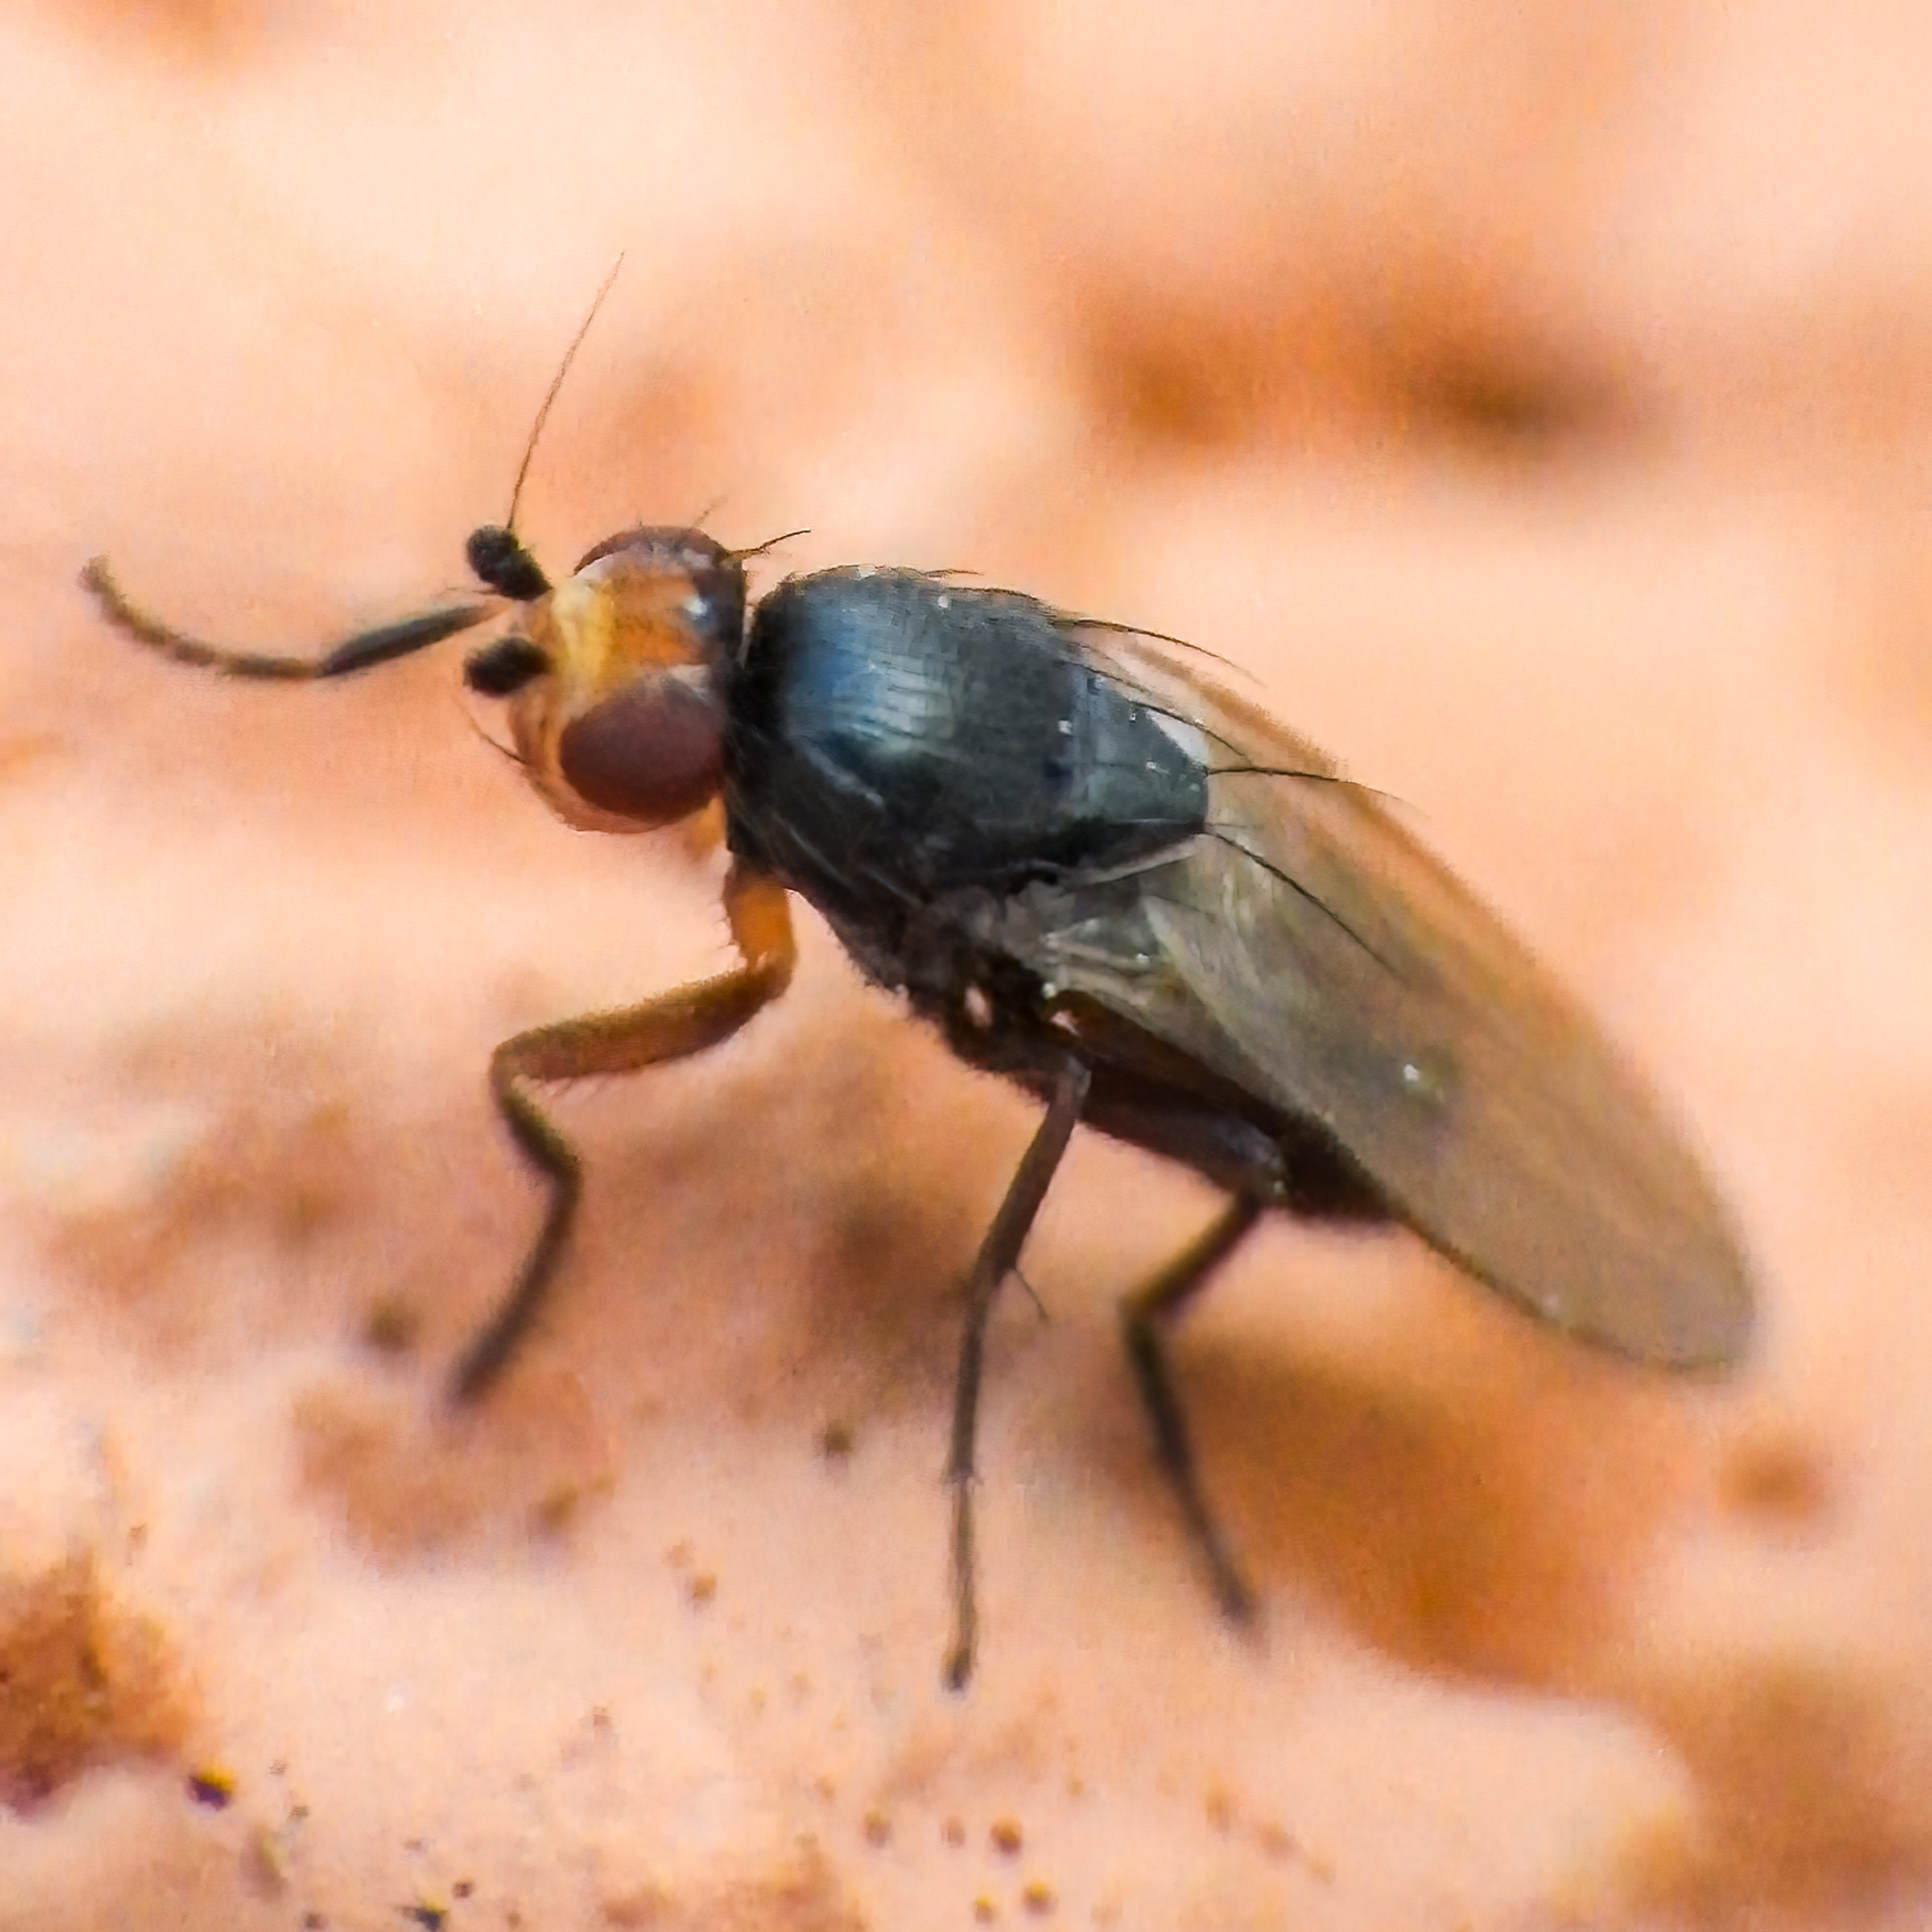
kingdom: Animalia
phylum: Arthropoda
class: Insecta
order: Diptera
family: Sphaeroceridae
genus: Spelobia
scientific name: Spelobia ochripes
